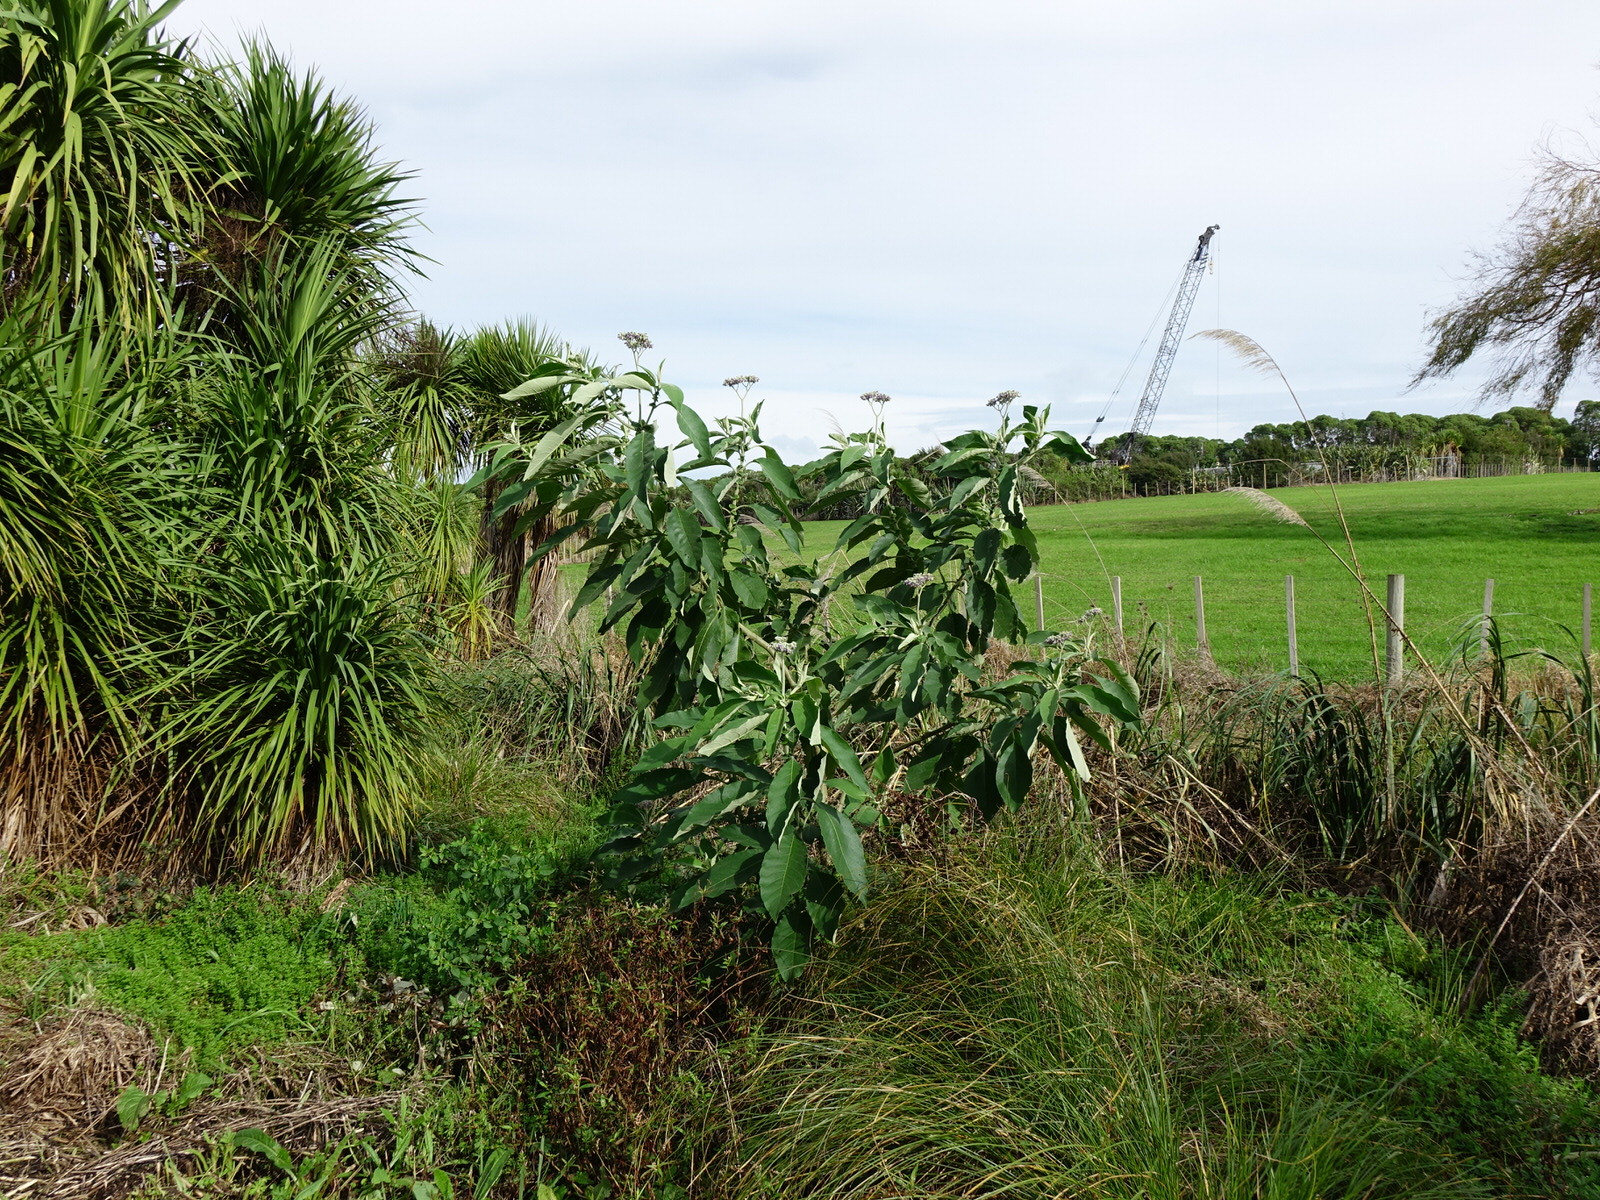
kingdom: Plantae
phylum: Tracheophyta
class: Magnoliopsida
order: Solanales
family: Solanaceae
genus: Solanum
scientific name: Solanum mauritianum
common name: Earleaf nightshade
